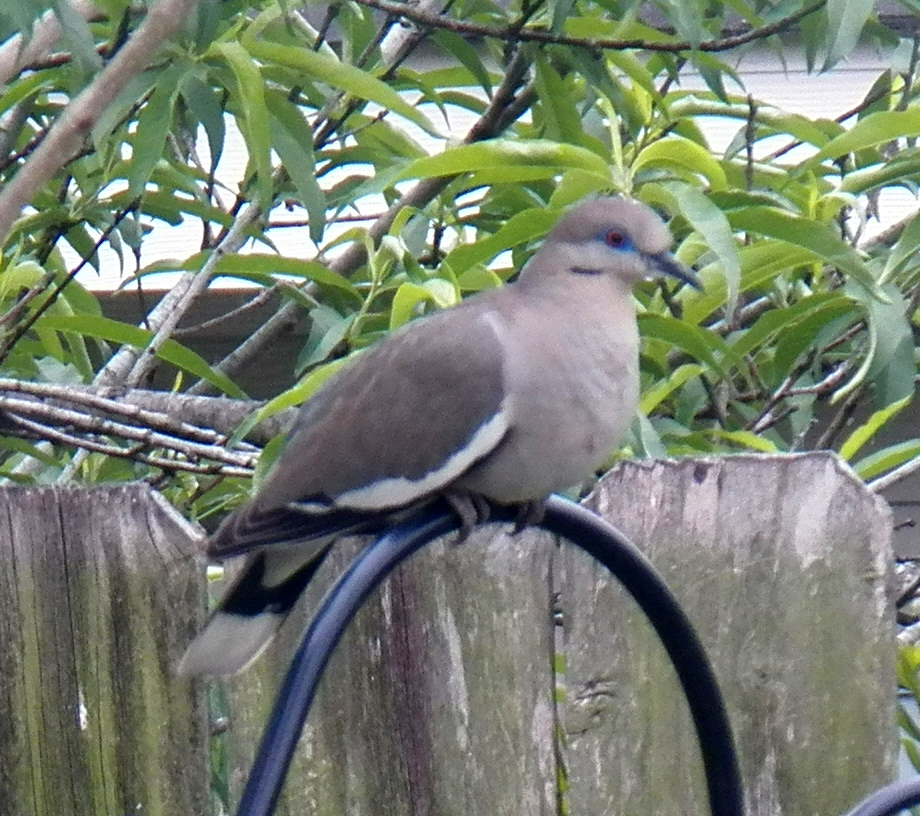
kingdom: Animalia
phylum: Chordata
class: Aves
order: Columbiformes
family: Columbidae
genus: Zenaida
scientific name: Zenaida asiatica
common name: White-winged dove
